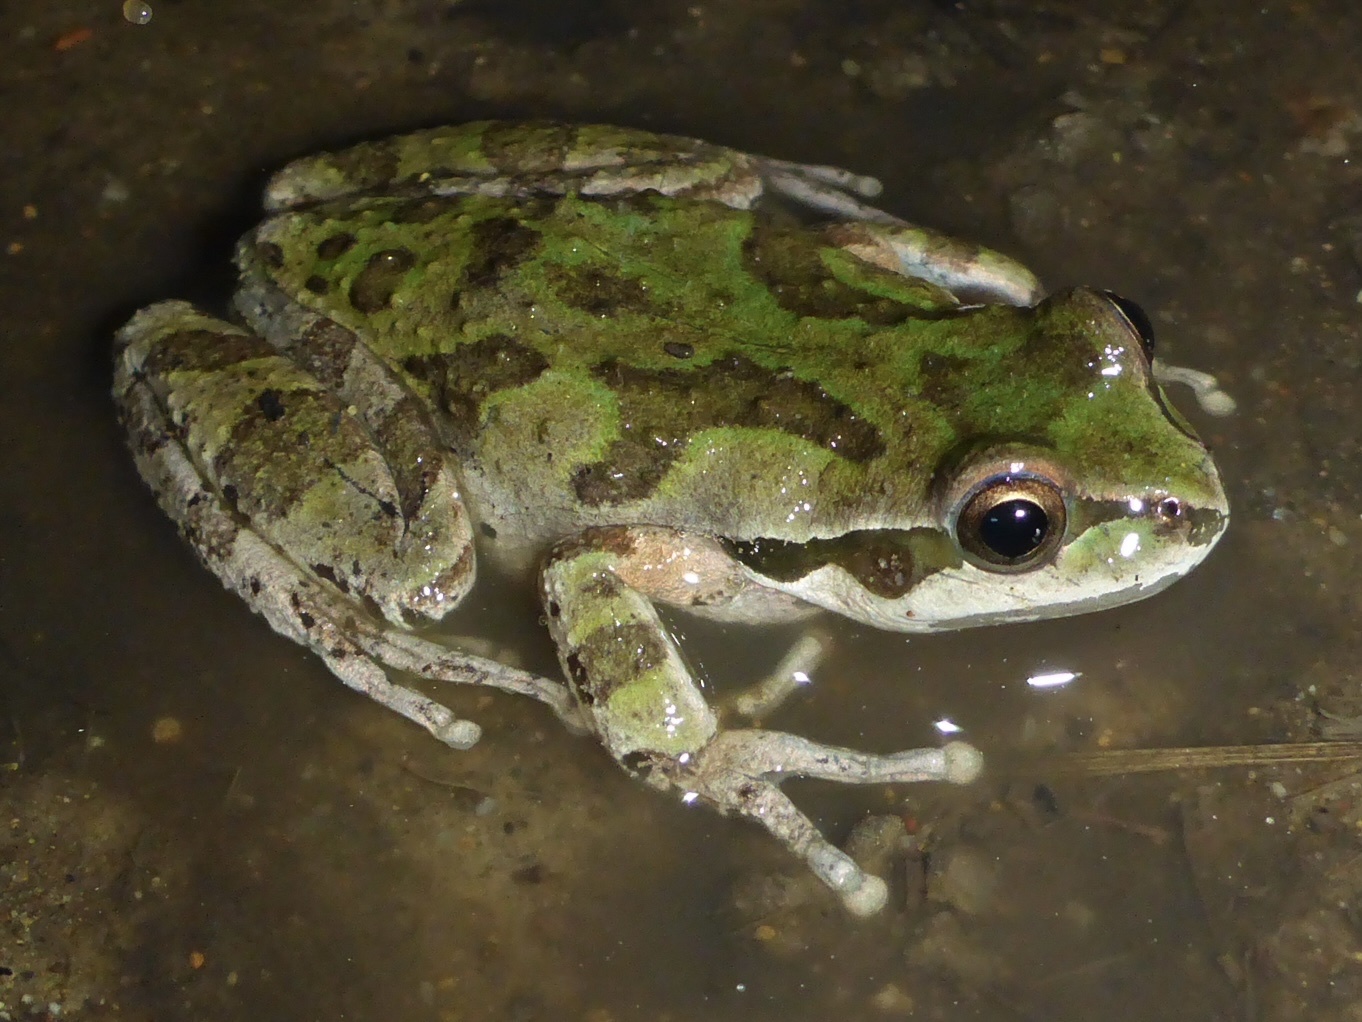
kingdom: Animalia
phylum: Chordata
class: Amphibia
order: Anura
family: Hylidae
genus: Pseudacris
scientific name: Pseudacris regilla
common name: Pacific chorus frog
